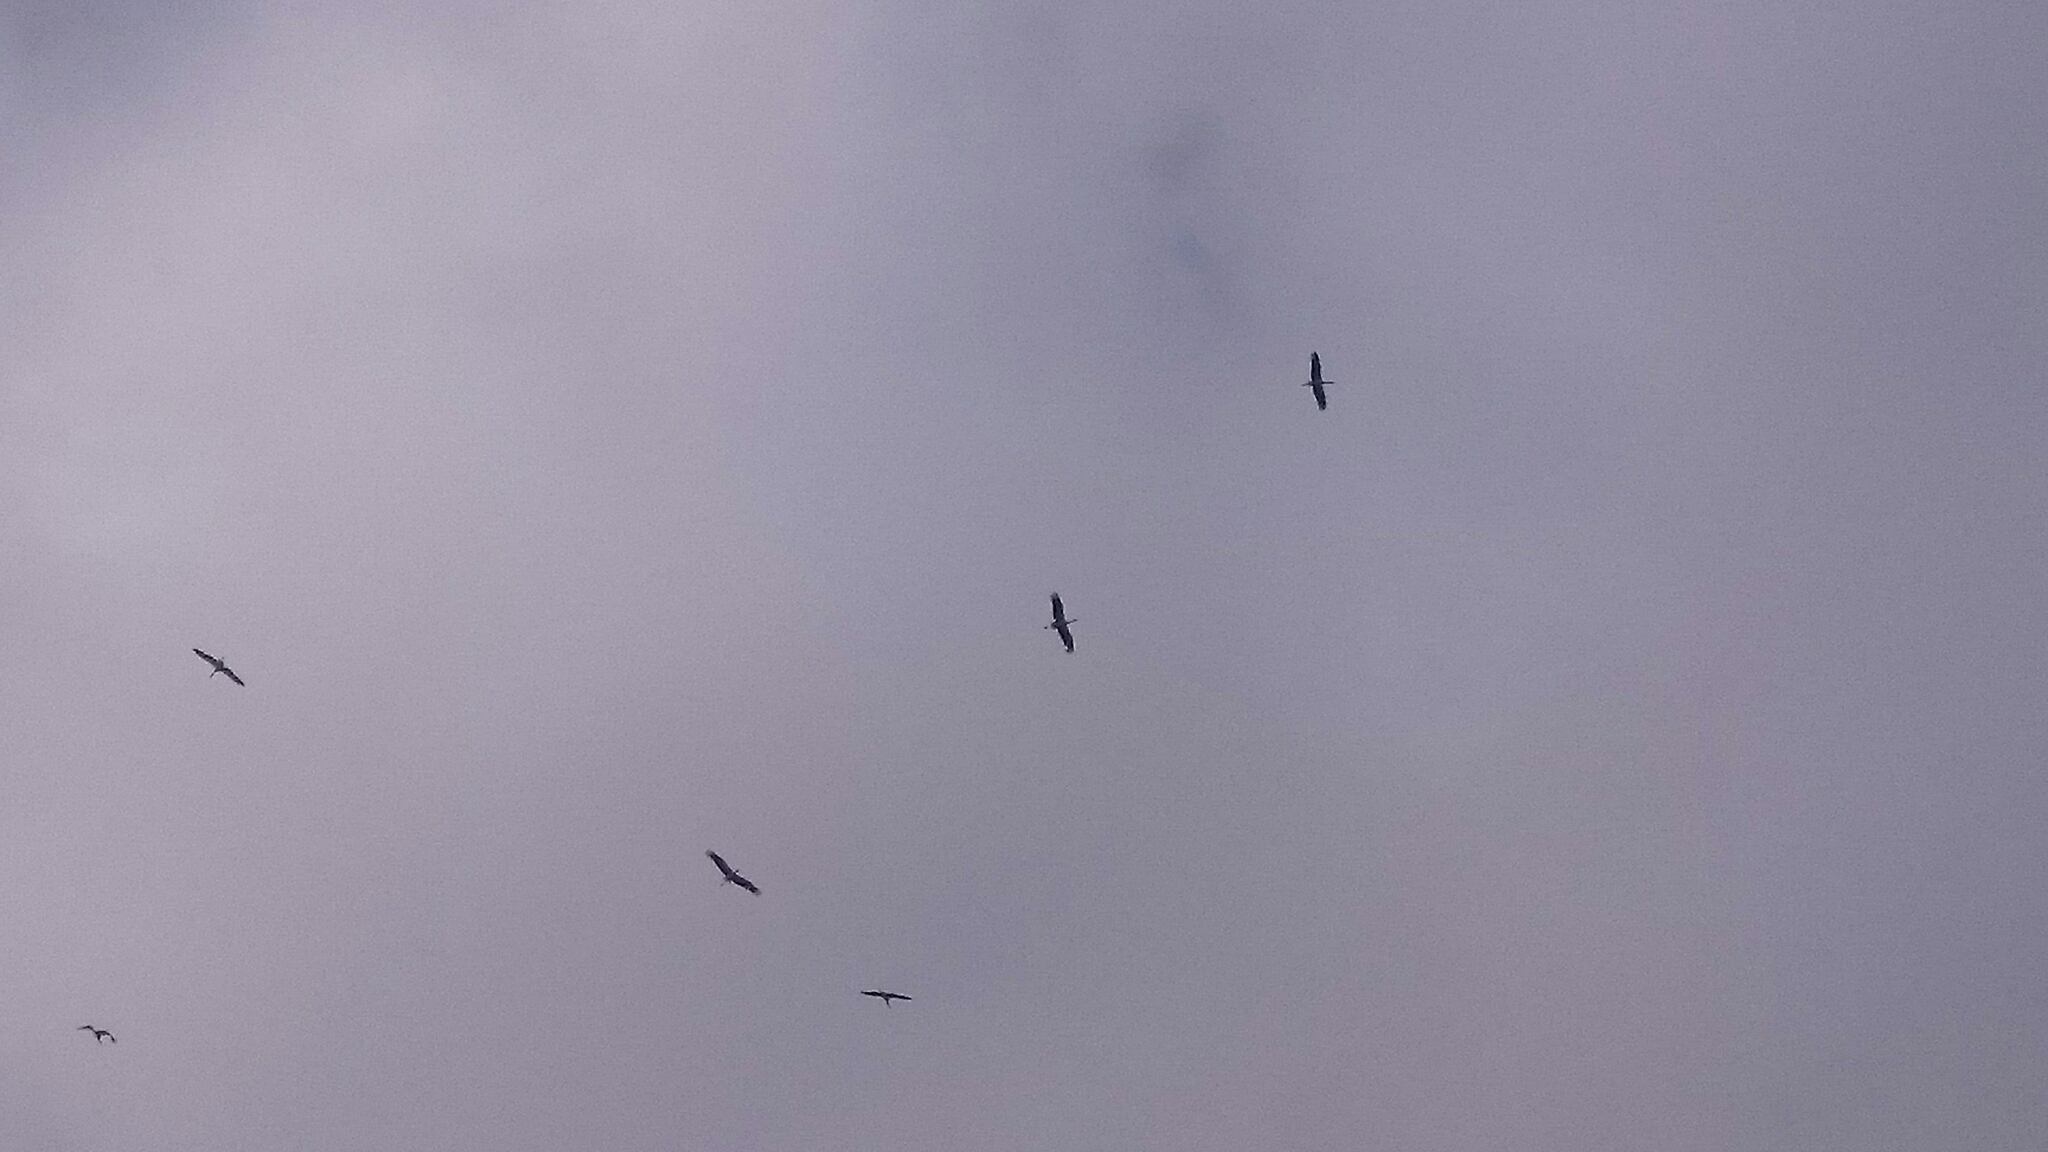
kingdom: Animalia
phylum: Chordata
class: Aves
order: Ciconiiformes
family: Ciconiidae
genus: Ciconia
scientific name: Ciconia ciconia
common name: White stork
